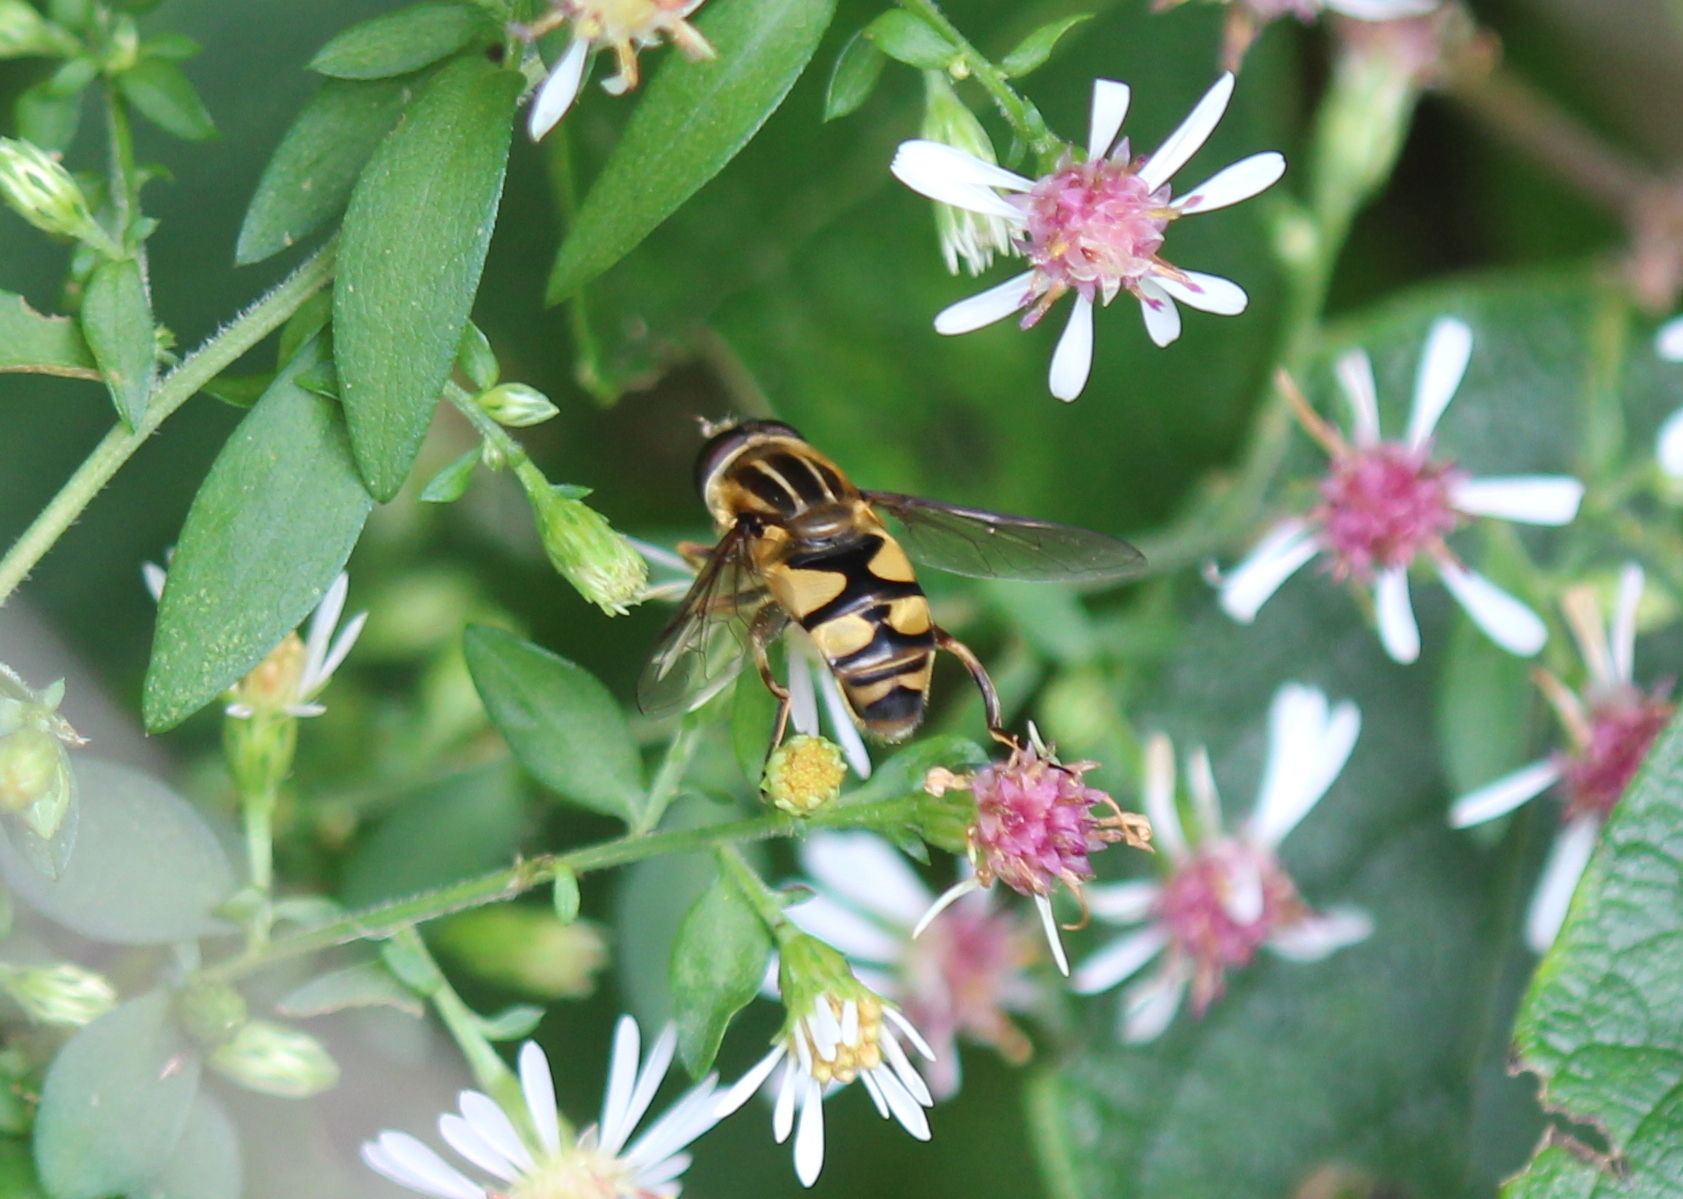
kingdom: Animalia
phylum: Arthropoda
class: Insecta
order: Diptera
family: Syrphidae
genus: Helophilus
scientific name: Helophilus fasciatus
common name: Narrow-headed marsh fly
